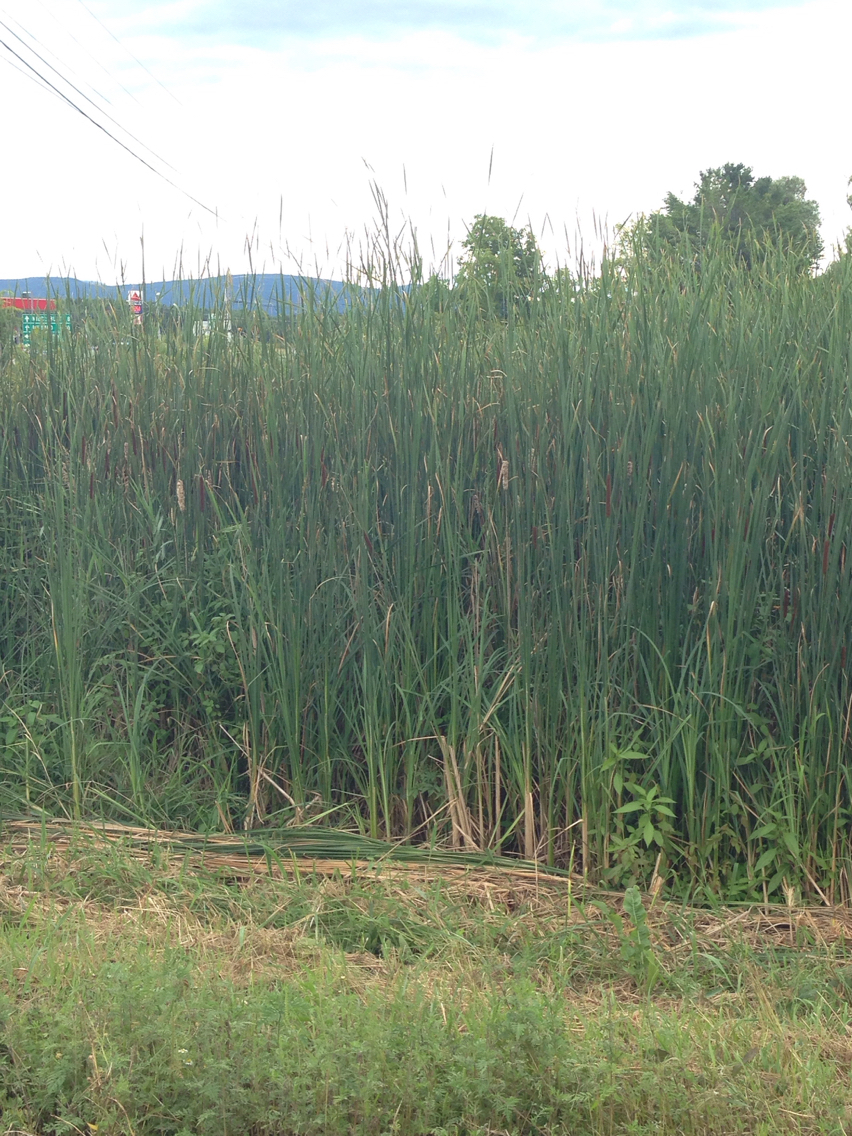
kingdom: Plantae
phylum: Tracheophyta
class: Liliopsida
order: Poales
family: Typhaceae
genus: Typha
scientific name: Typha angustifolia
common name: Lesser bulrush
